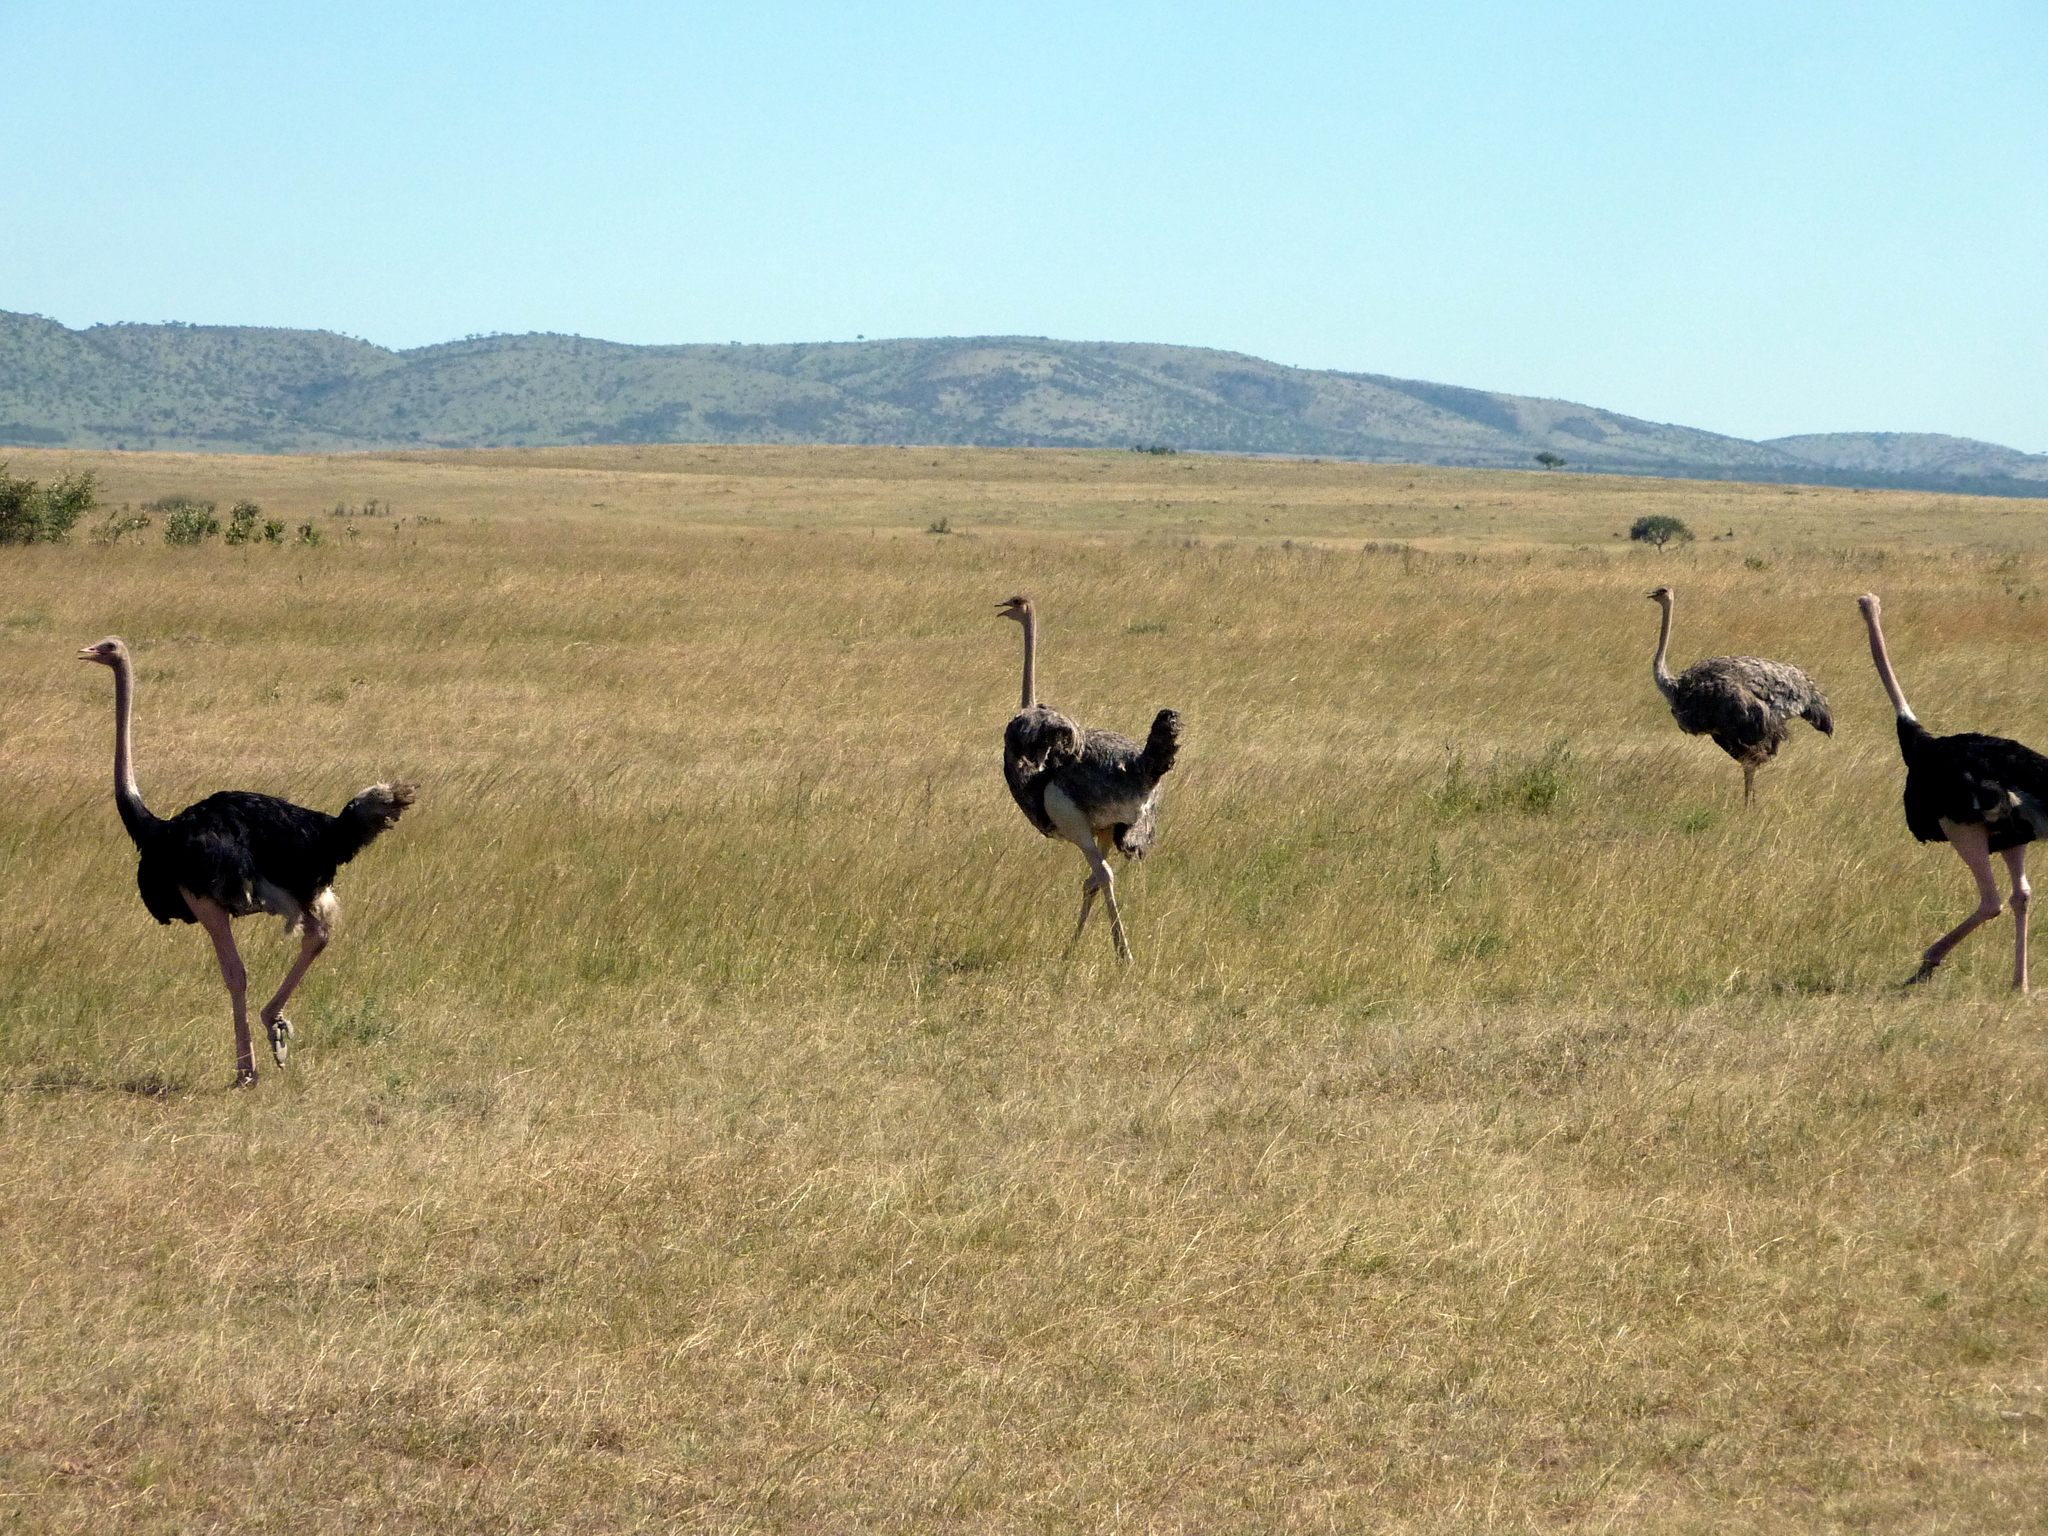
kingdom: Animalia
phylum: Chordata
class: Aves
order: Struthioniformes
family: Struthionidae
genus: Struthio
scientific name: Struthio camelus
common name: Common ostrich
